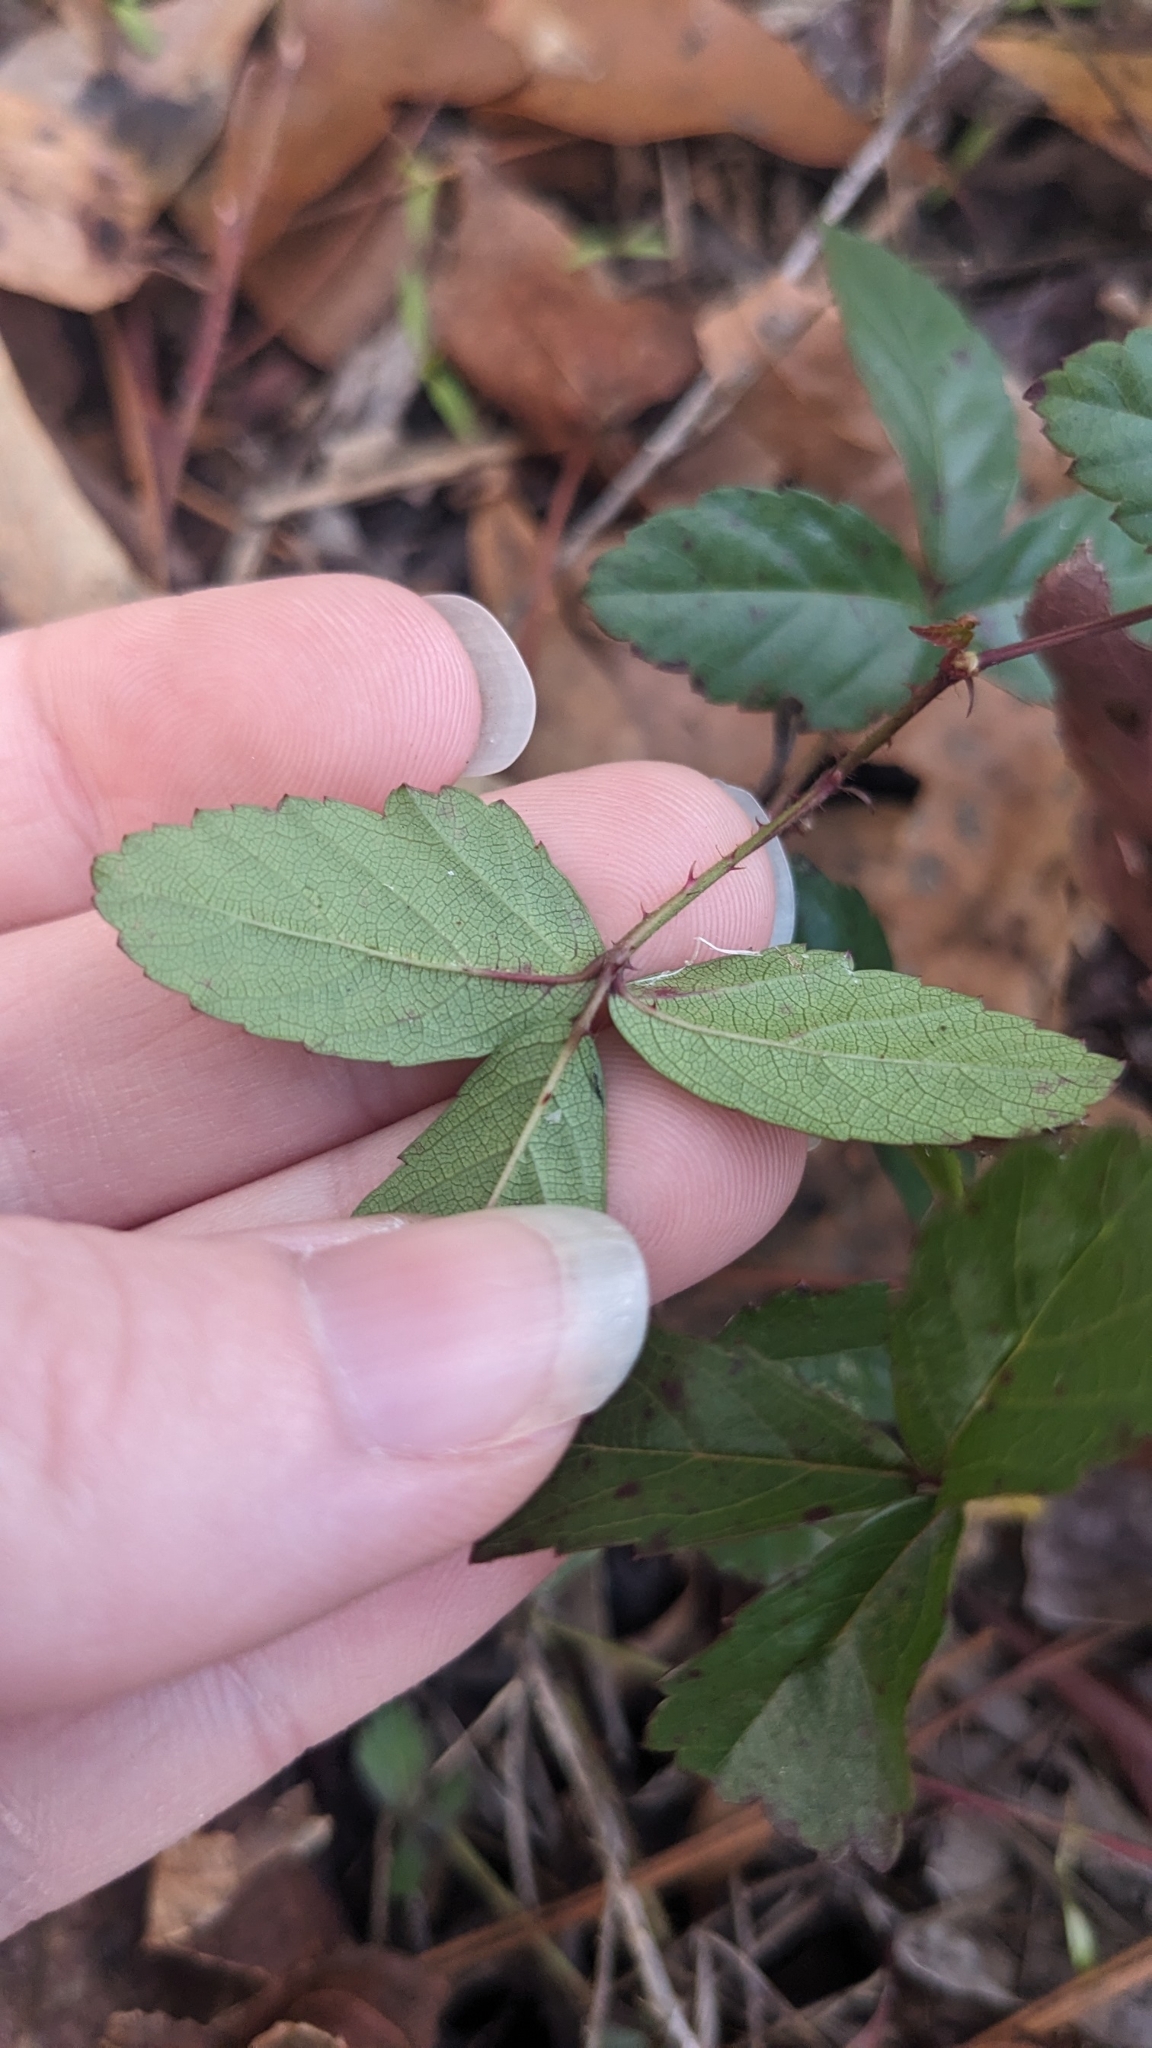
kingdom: Plantae
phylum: Tracheophyta
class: Magnoliopsida
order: Rosales
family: Rosaceae
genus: Rubus
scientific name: Rubus trivialis
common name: Southern dewberry
